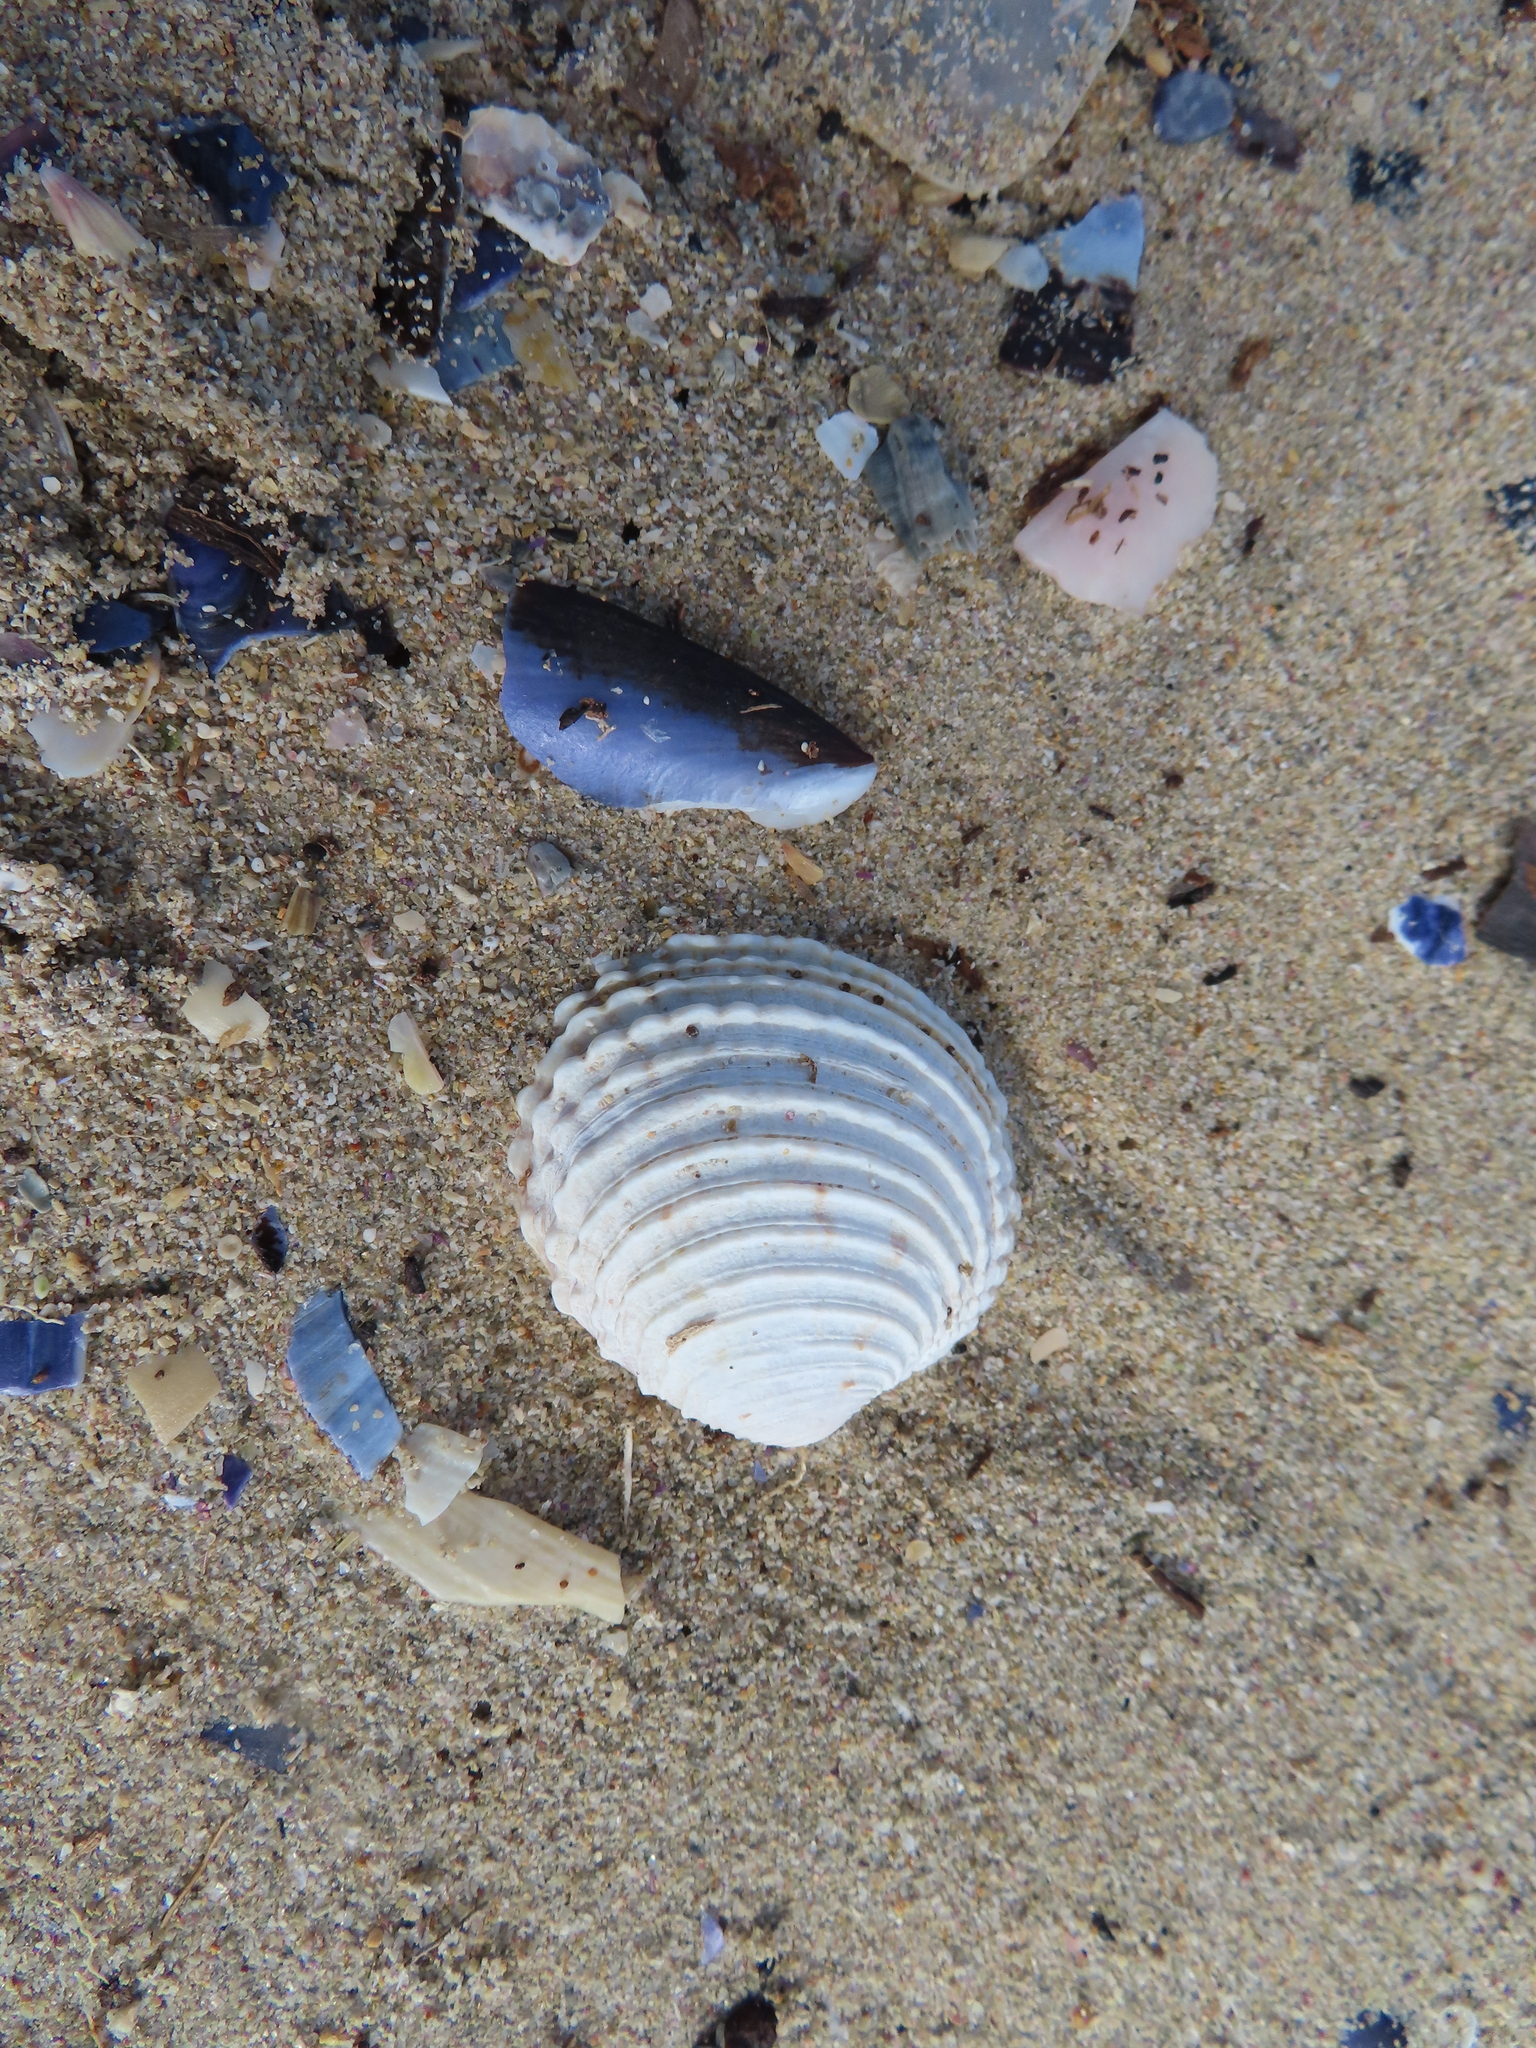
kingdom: Animalia
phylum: Mollusca
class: Bivalvia
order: Venerida
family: Veneridae
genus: Venus
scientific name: Venus verrucosa
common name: Warty venus
